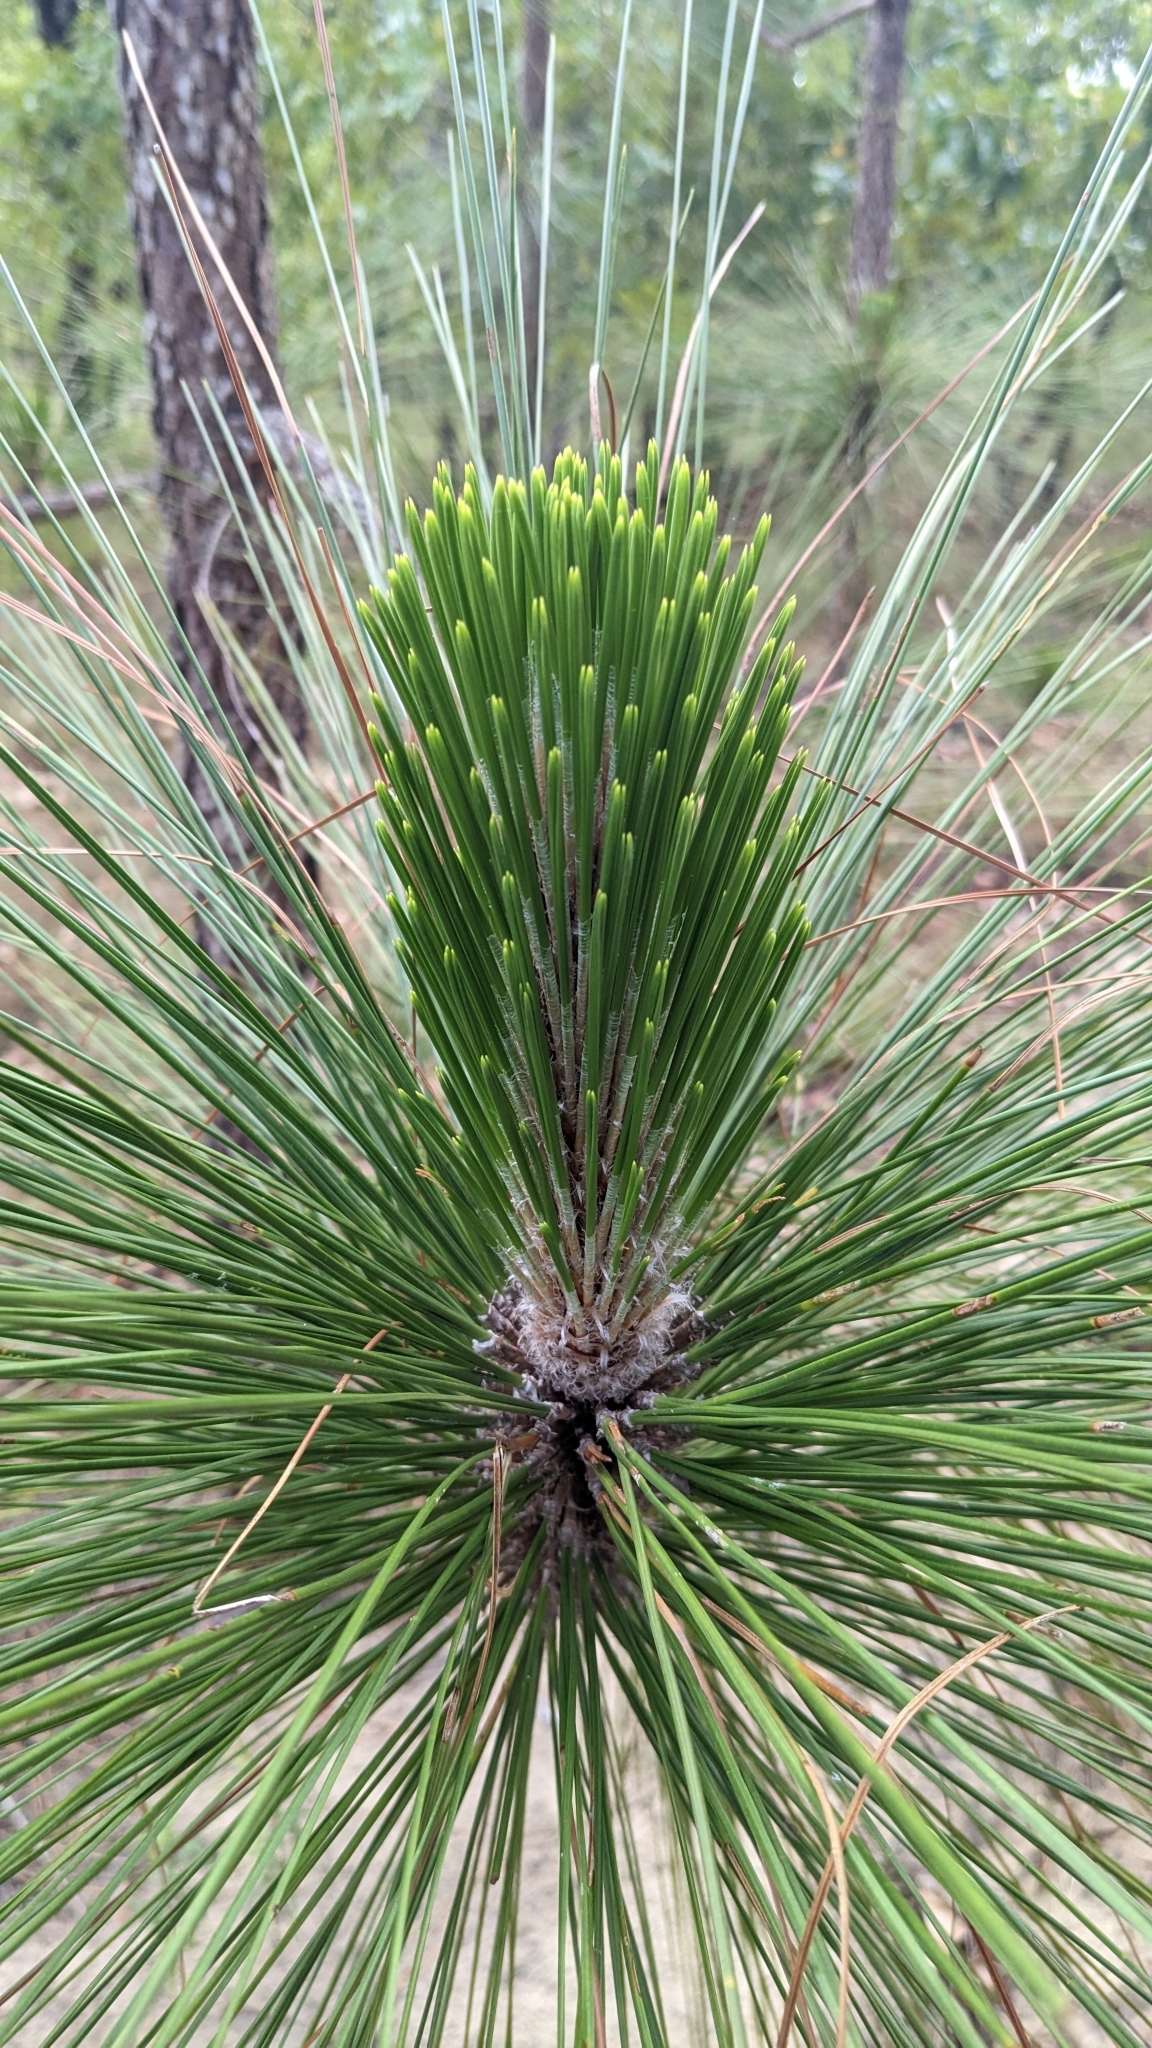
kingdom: Plantae
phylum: Tracheophyta
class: Pinopsida
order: Pinales
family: Pinaceae
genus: Pinus
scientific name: Pinus palustris
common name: Longleaf pine
